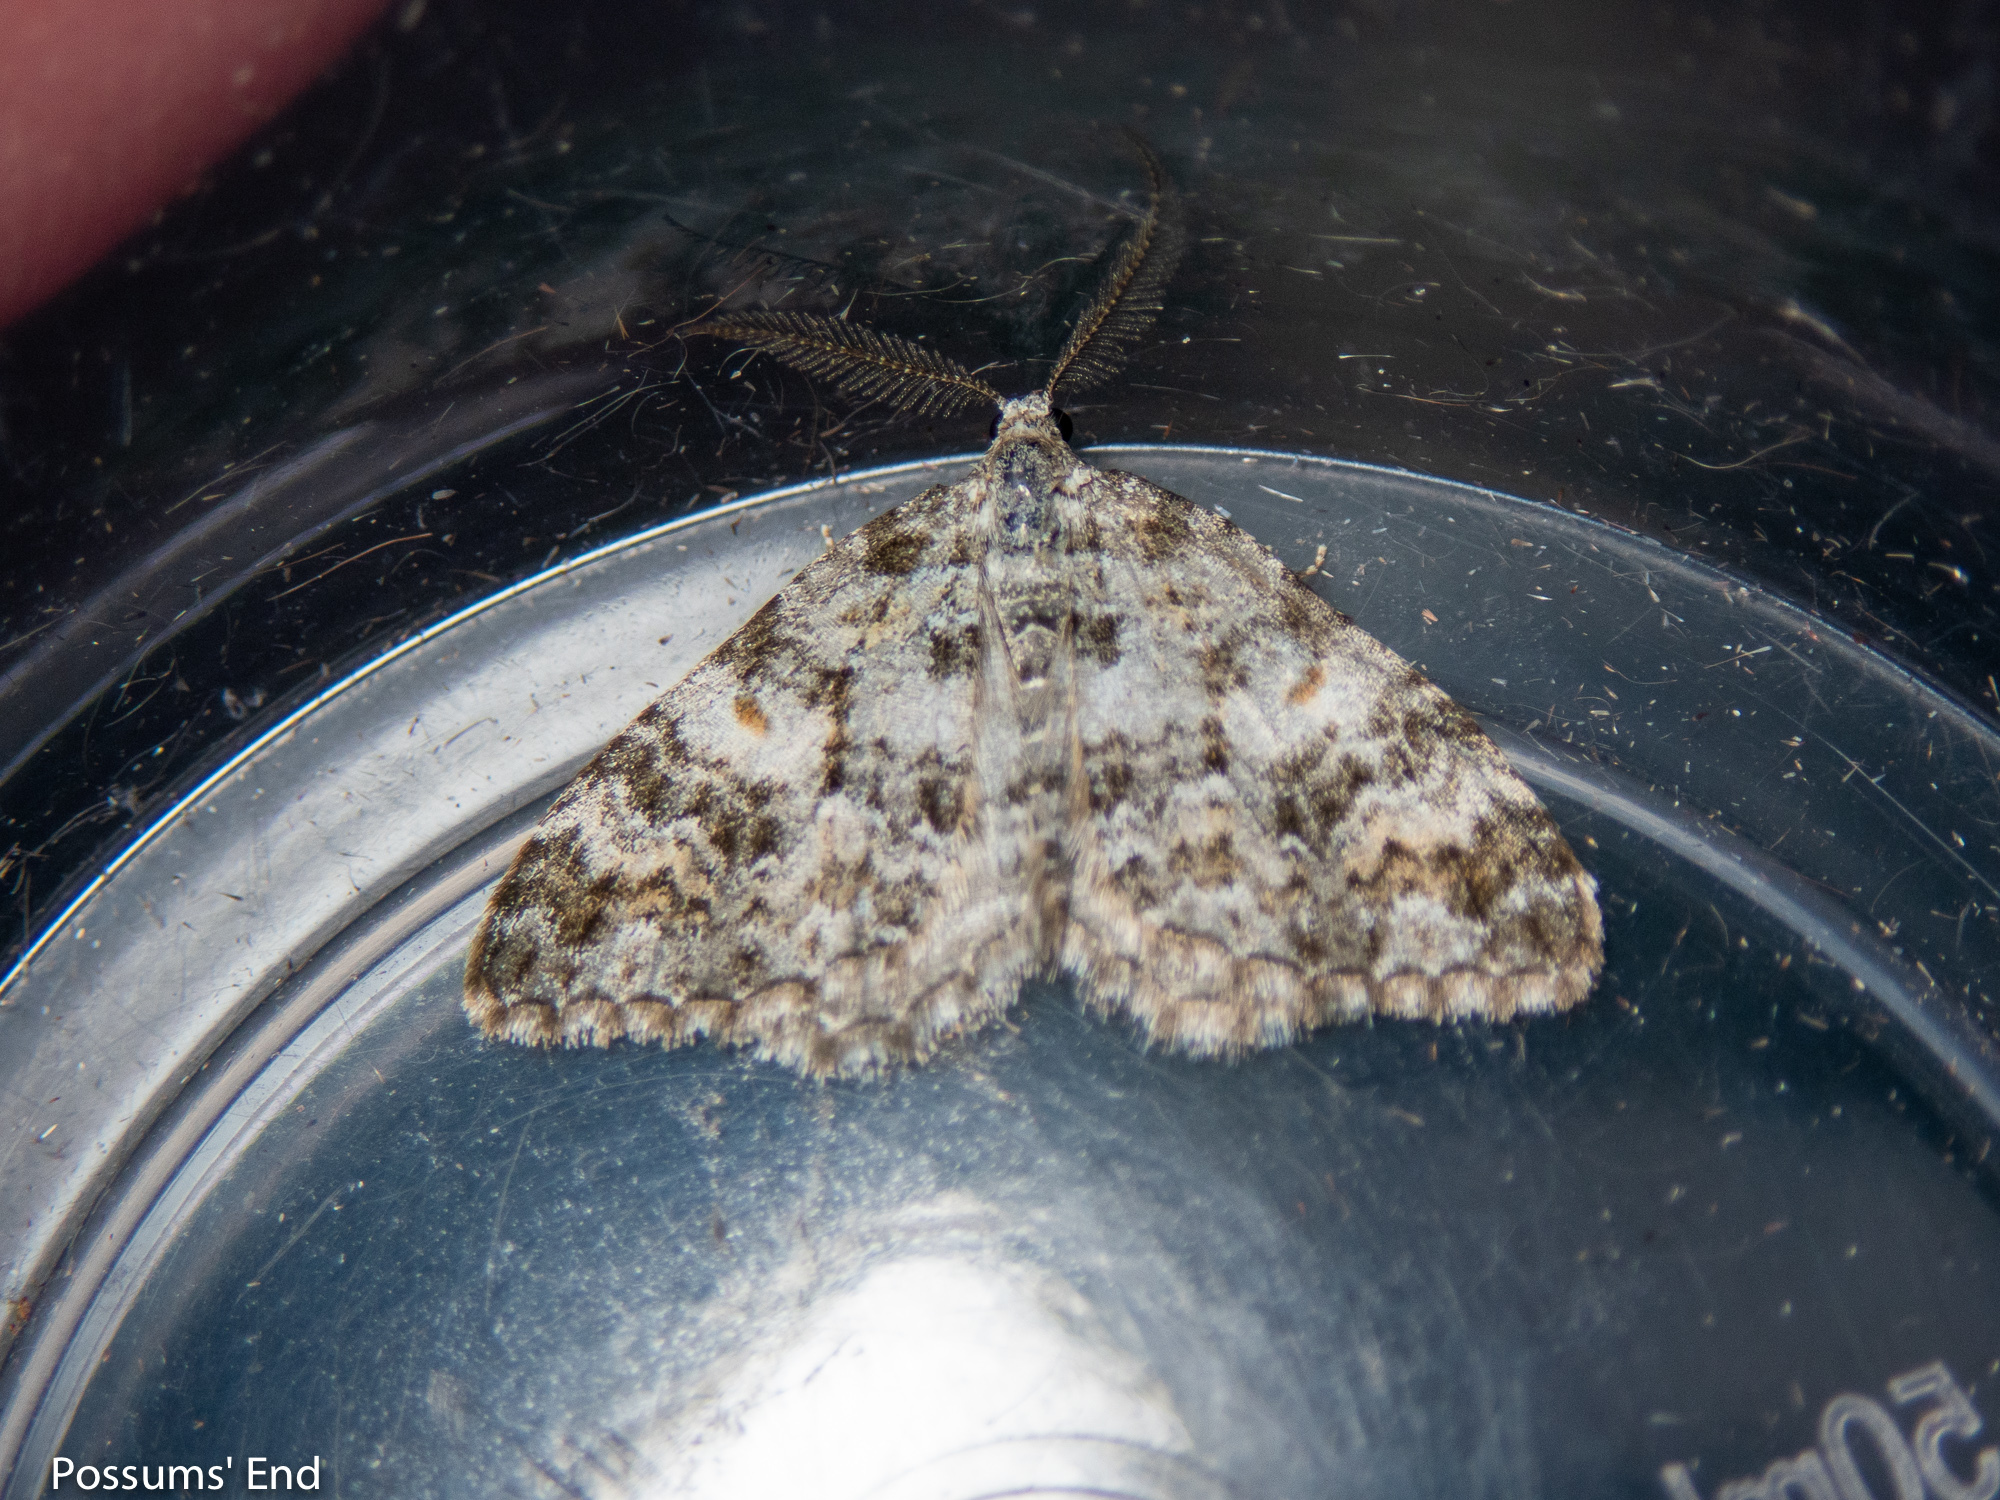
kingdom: Animalia
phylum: Arthropoda
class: Insecta
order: Lepidoptera
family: Geometridae
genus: Helastia
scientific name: Helastia plumbea
